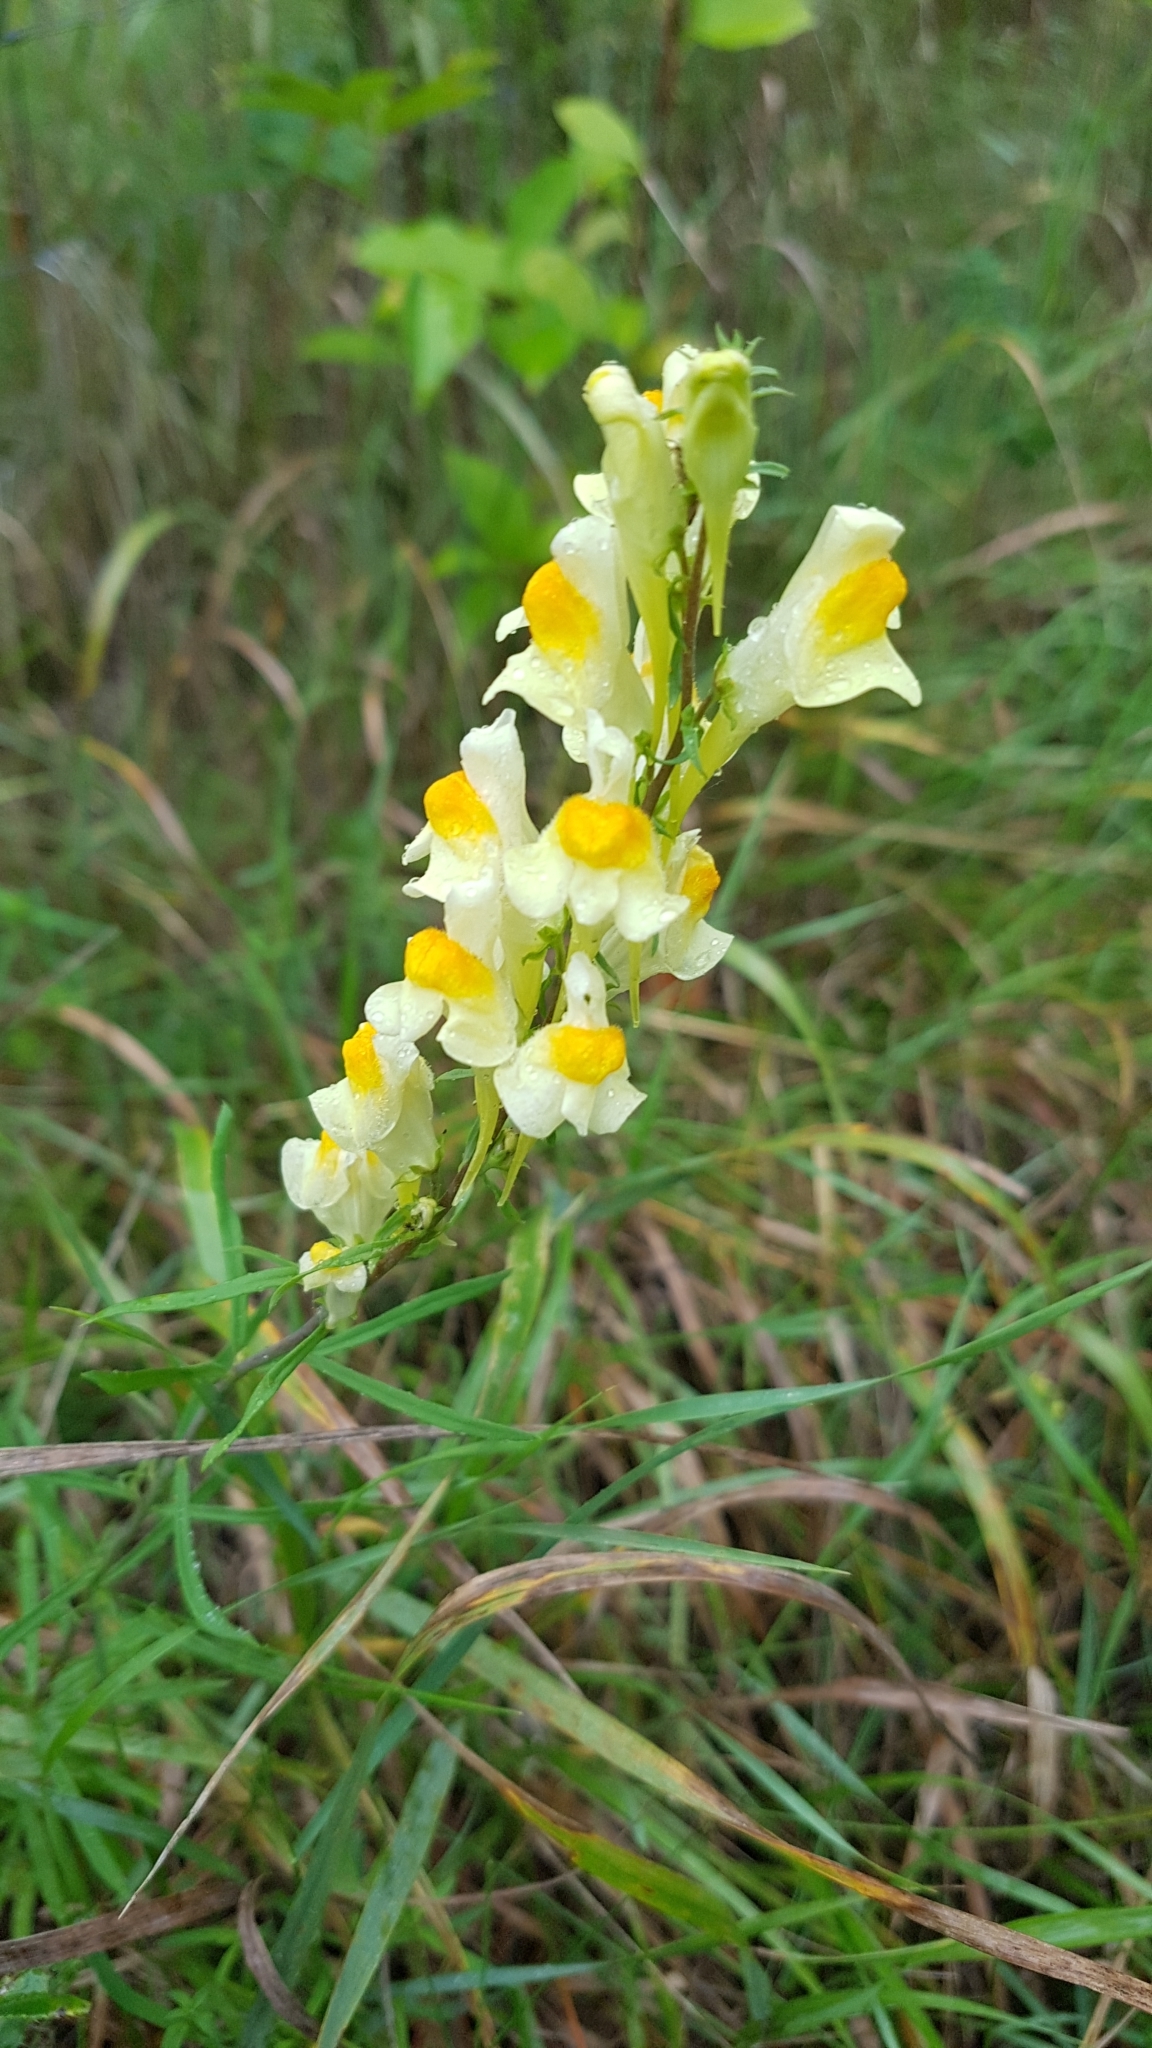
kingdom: Plantae
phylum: Tracheophyta
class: Magnoliopsida
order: Lamiales
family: Plantaginaceae
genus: Linaria
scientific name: Linaria vulgaris
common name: Butter and eggs
